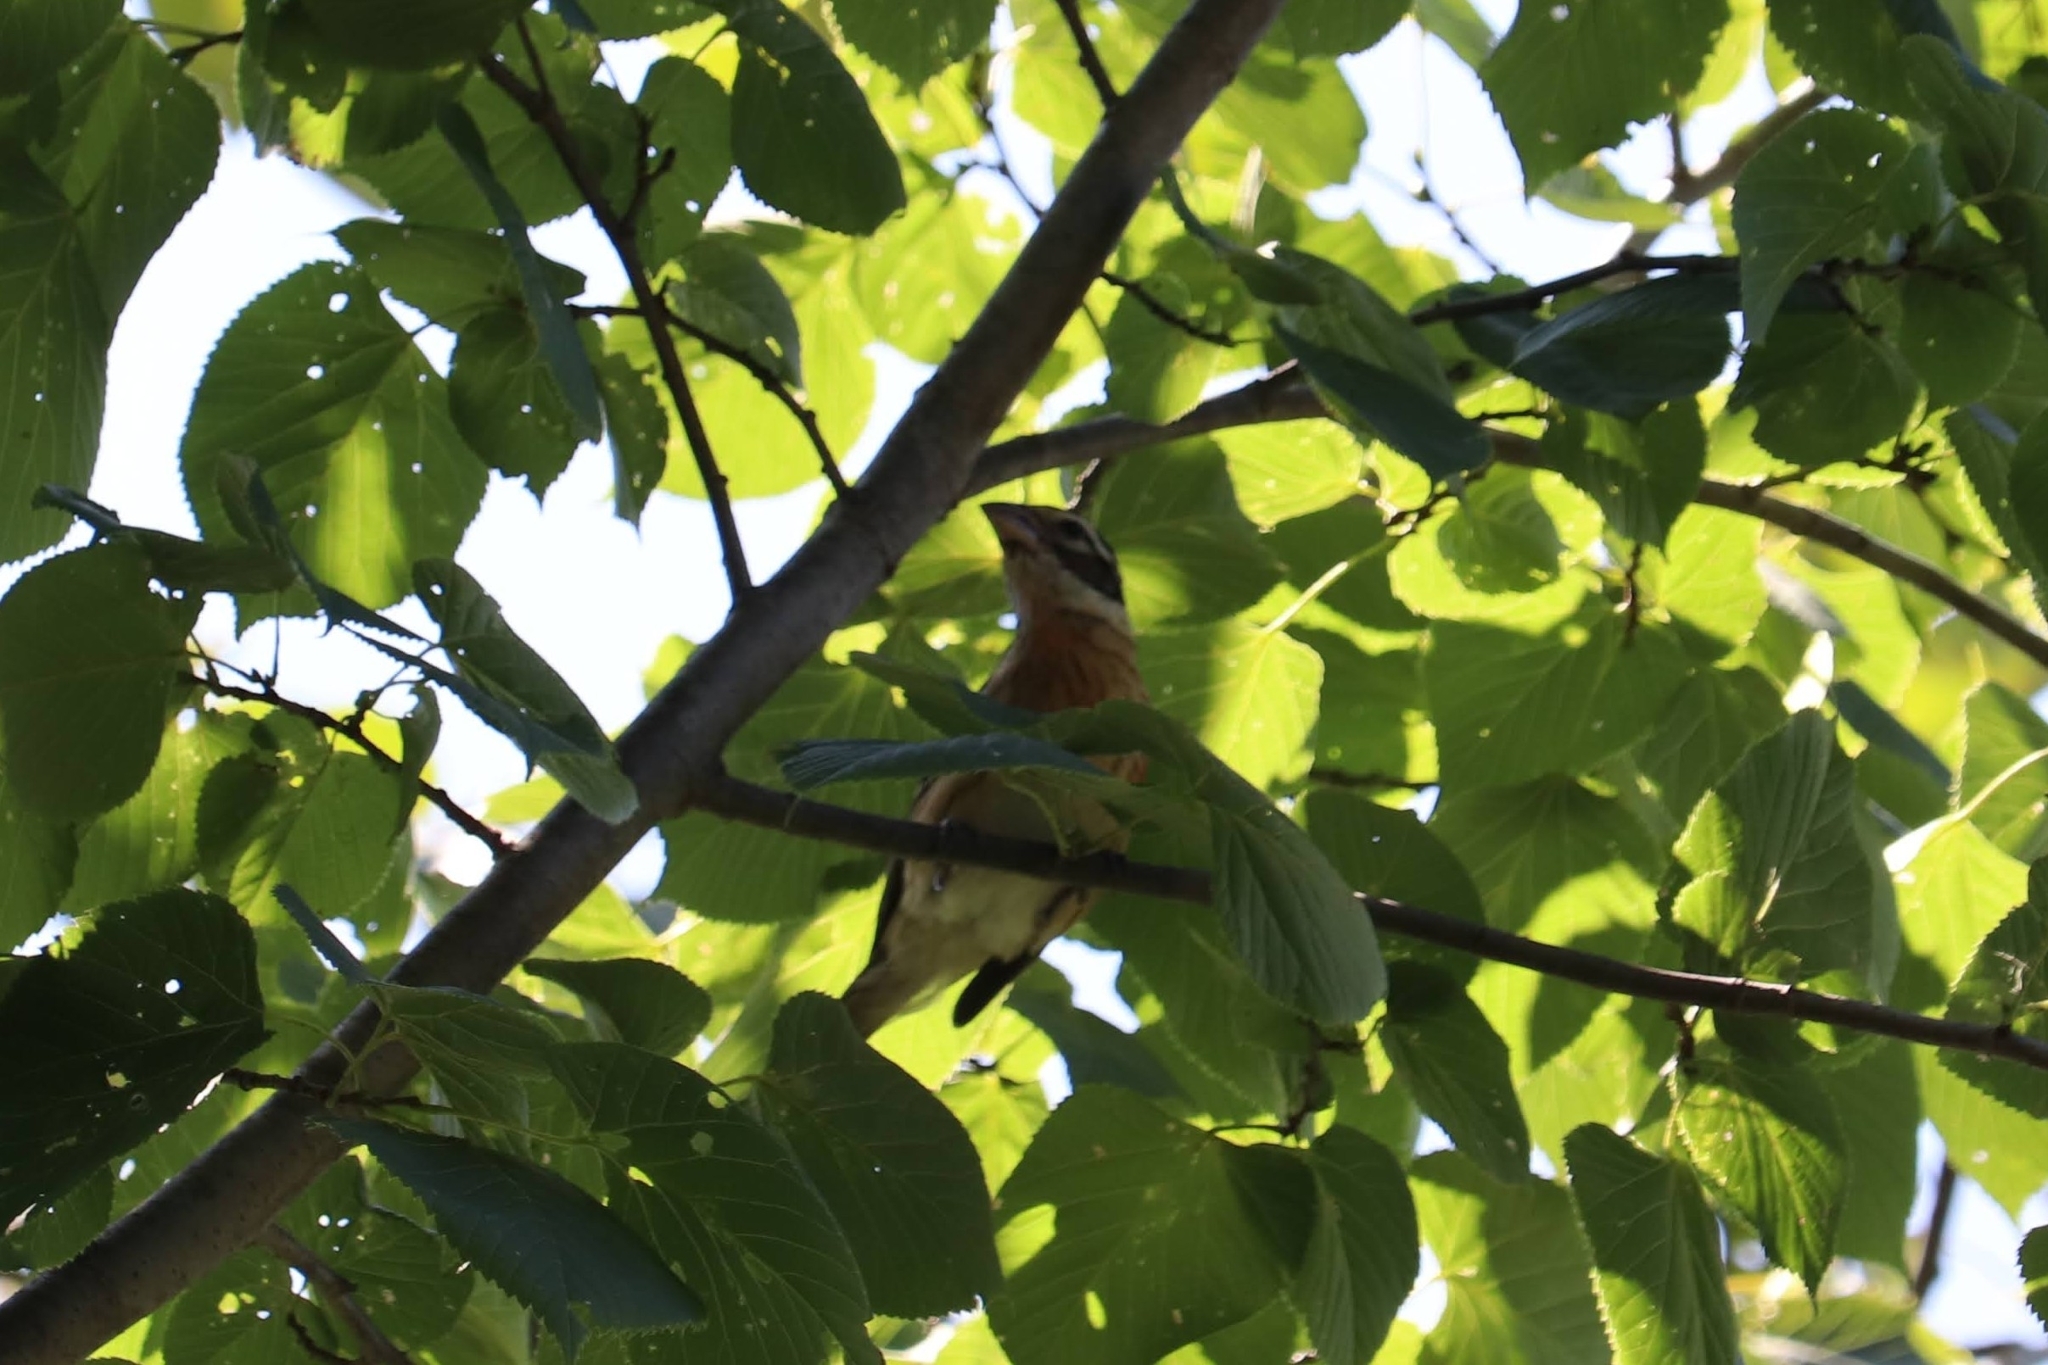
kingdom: Animalia
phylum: Chordata
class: Aves
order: Passeriformes
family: Cardinalidae
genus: Pheucticus
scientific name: Pheucticus ludovicianus
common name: Rose-breasted grosbeak
